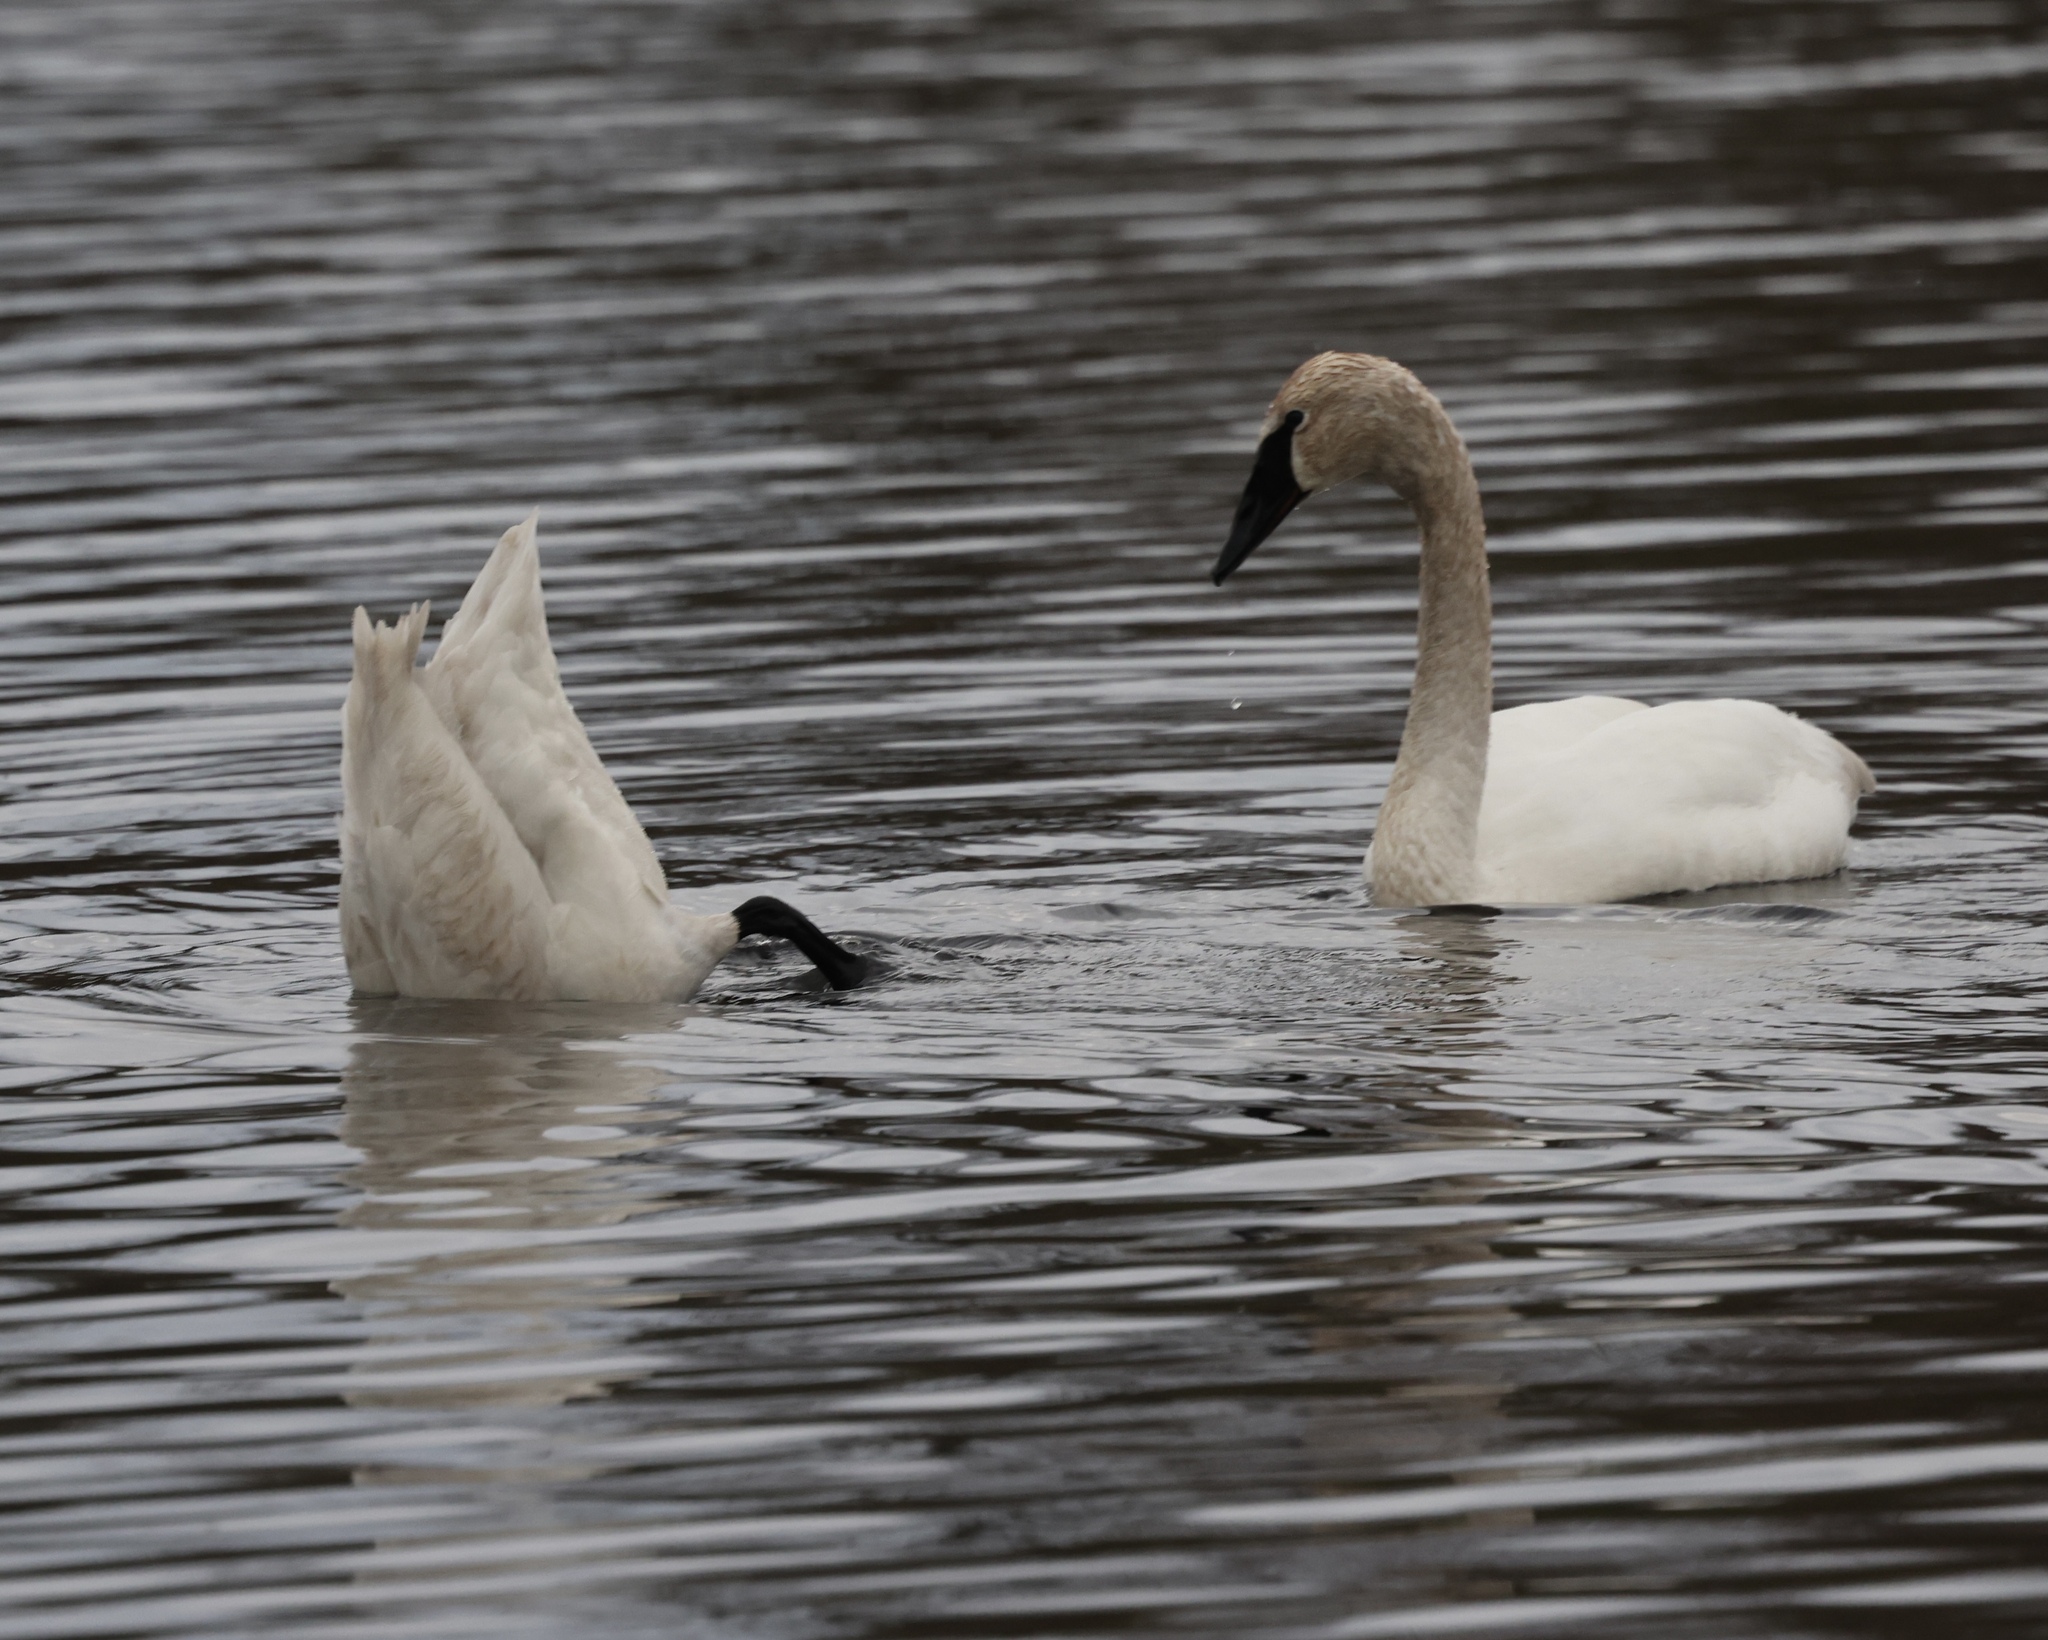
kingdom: Animalia
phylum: Chordata
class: Aves
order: Anseriformes
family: Anatidae
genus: Cygnus
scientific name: Cygnus buccinator
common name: Trumpeter swan
